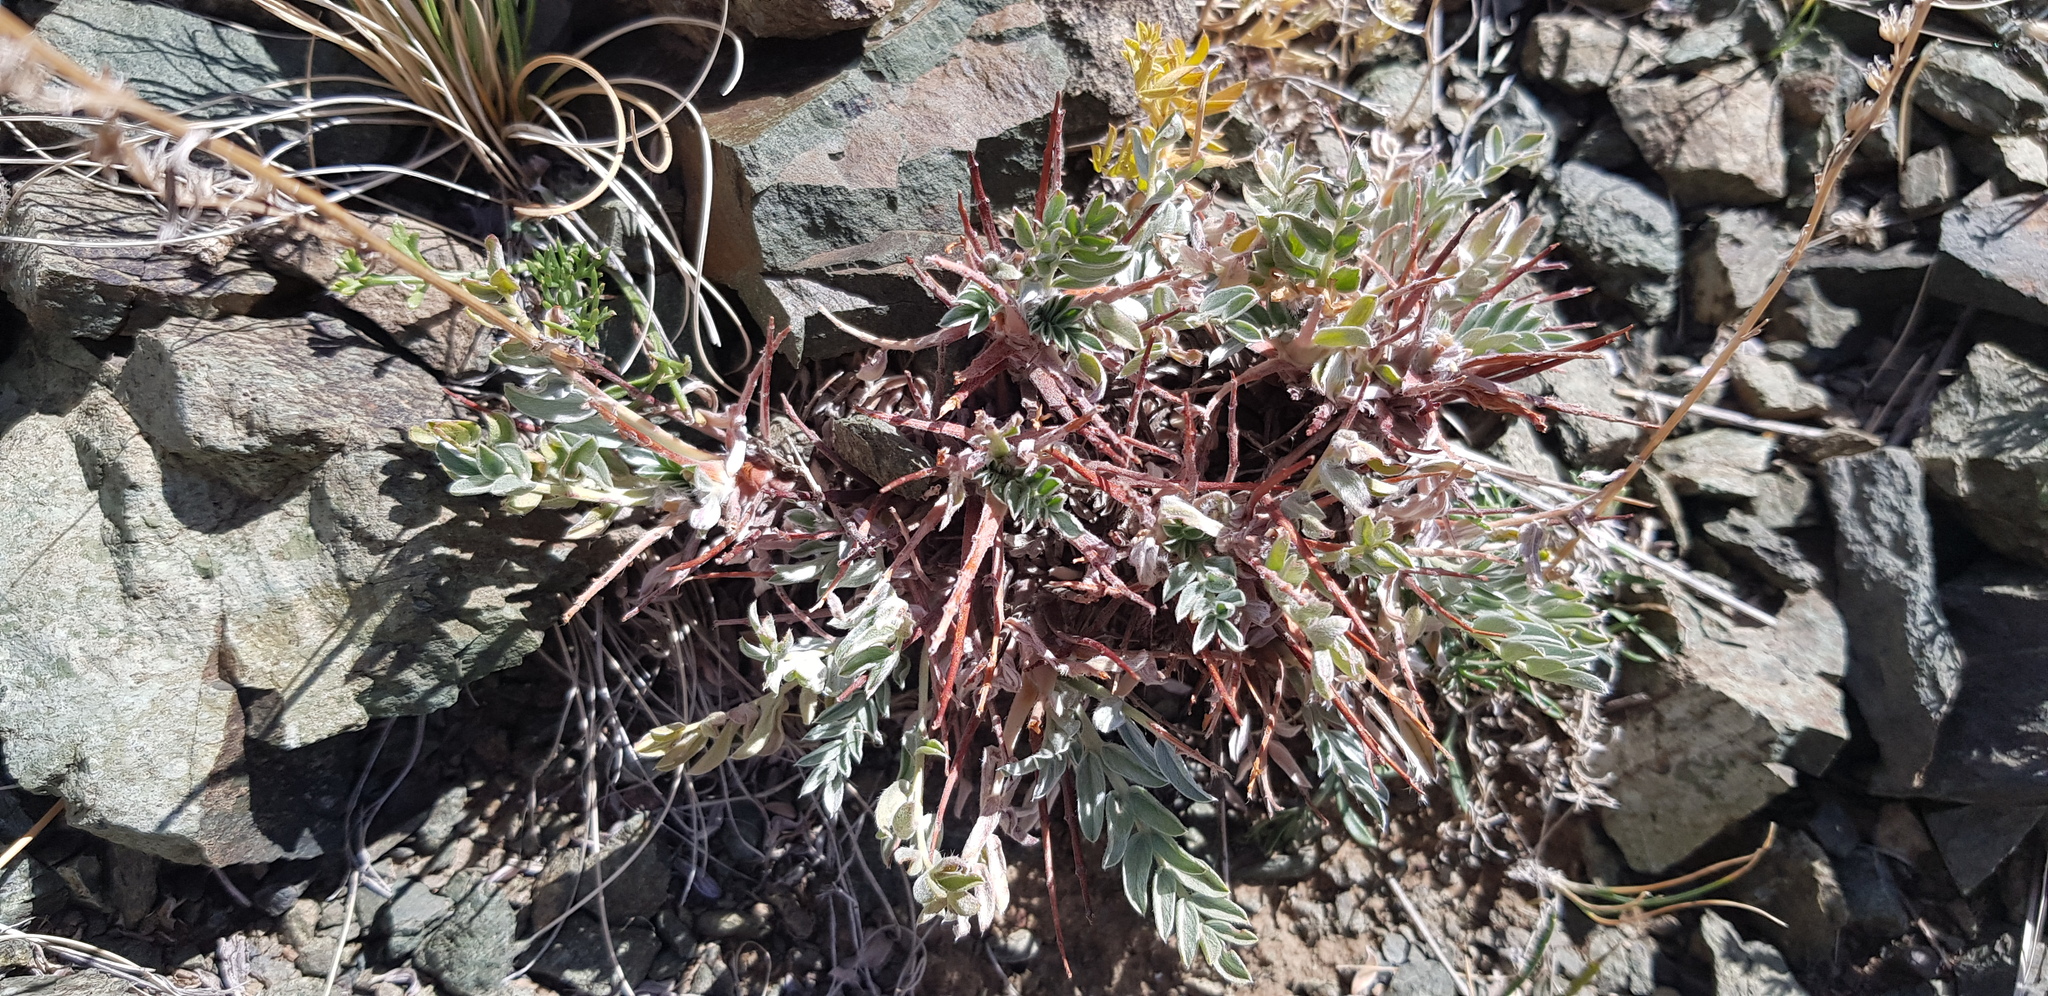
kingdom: Plantae
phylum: Tracheophyta
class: Magnoliopsida
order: Fabales
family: Fabaceae
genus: Oxytropis
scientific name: Oxytropis tragacanthoides
